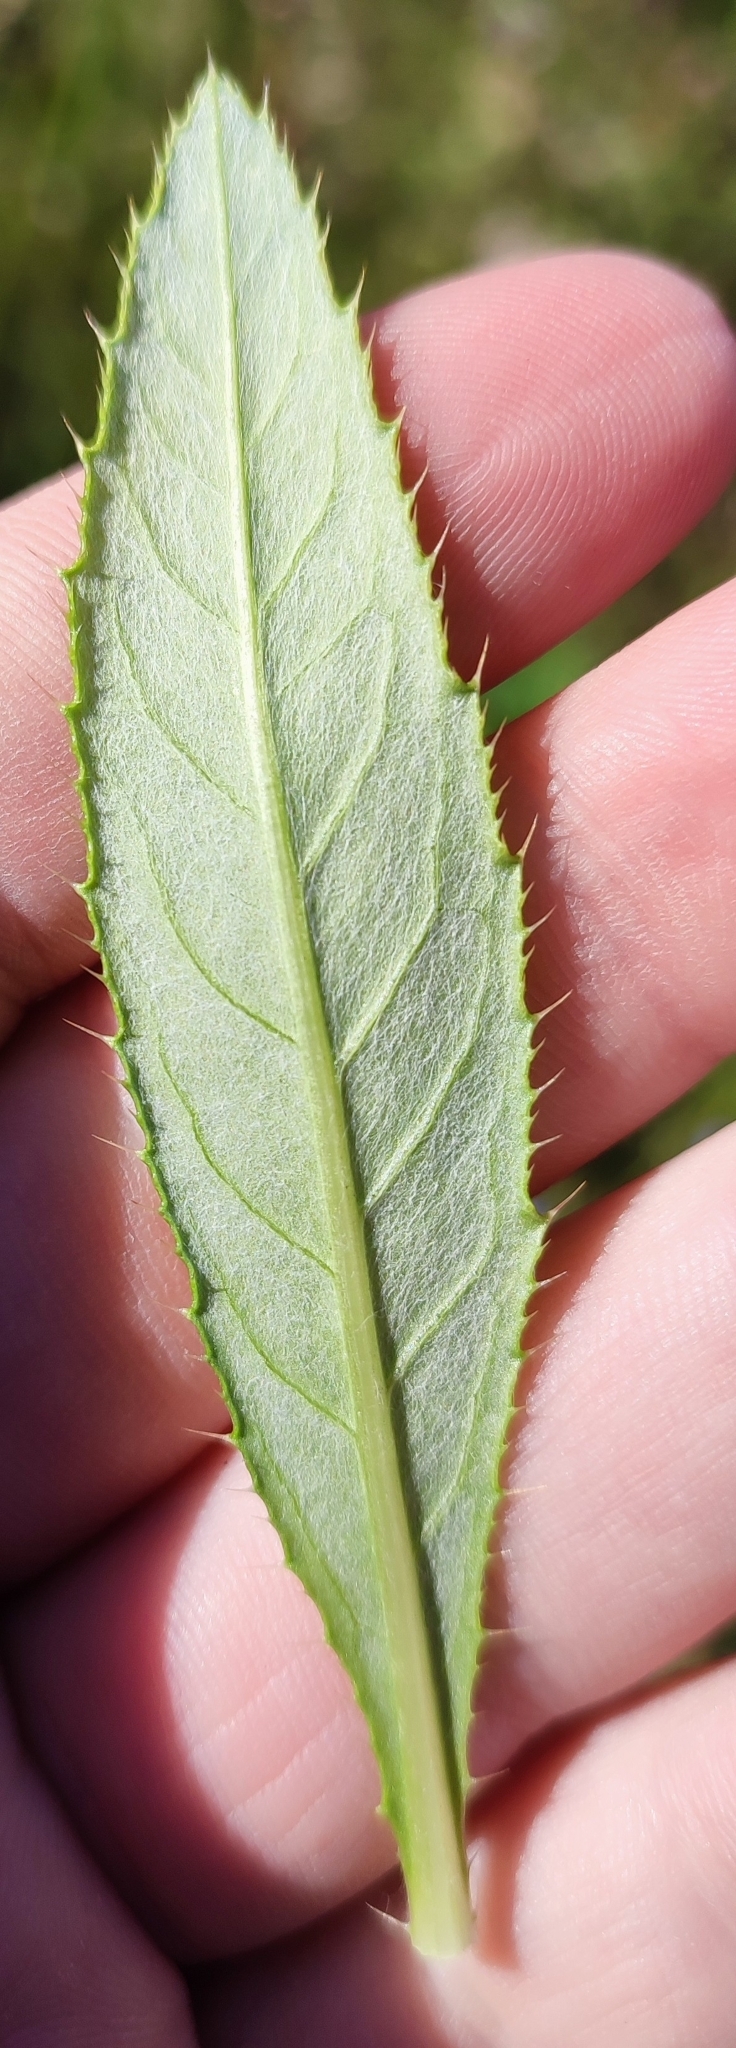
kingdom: Plantae
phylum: Tracheophyta
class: Magnoliopsida
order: Asterales
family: Asteraceae
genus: Cirsium
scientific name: Cirsium arvense
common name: Creeping thistle
